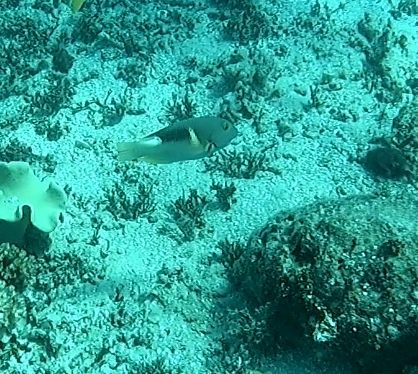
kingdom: Animalia
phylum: Chordata
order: Perciformes
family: Labridae
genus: Choerodon
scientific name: Choerodon anchorago
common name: Anchor tuskfish
